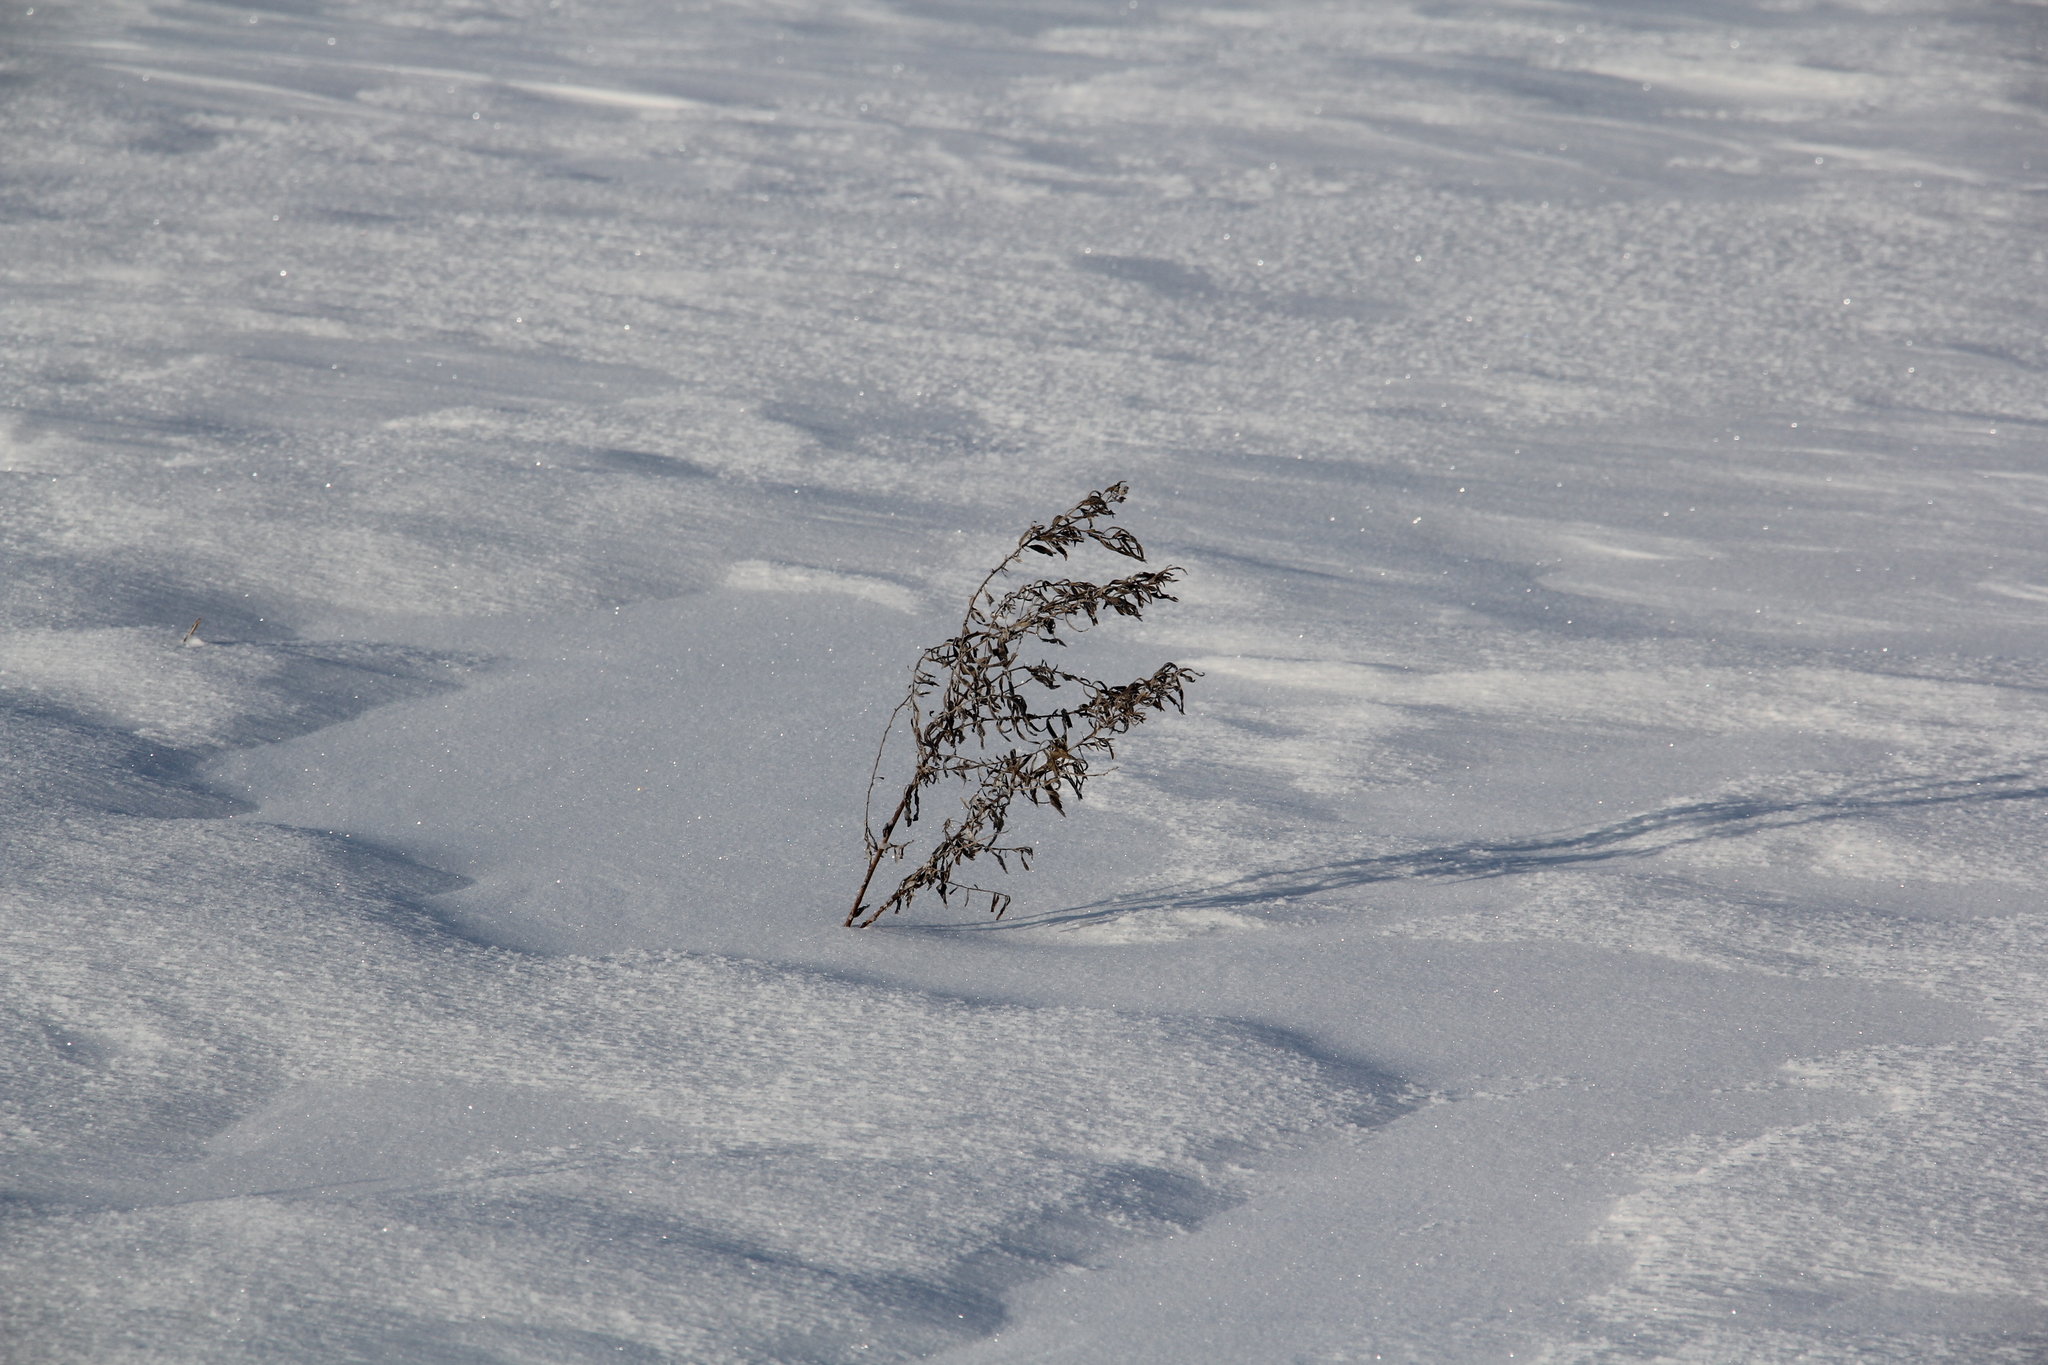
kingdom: Plantae
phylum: Tracheophyta
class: Magnoliopsida
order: Asterales
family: Asteraceae
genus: Achillea
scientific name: Achillea salicifolia
